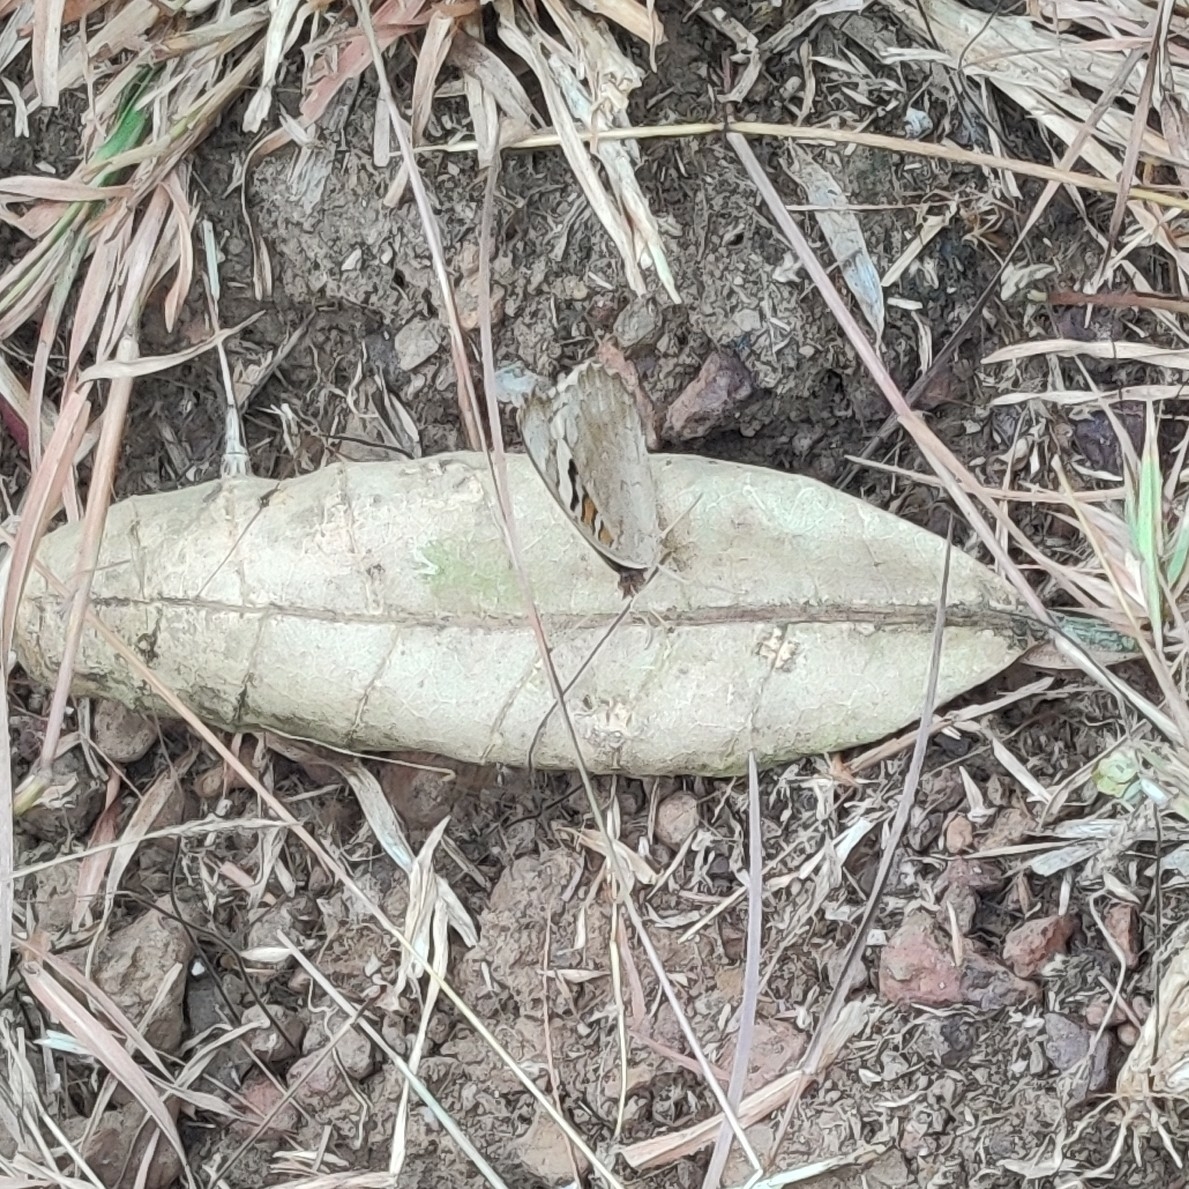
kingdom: Animalia
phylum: Arthropoda
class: Insecta
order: Lepidoptera
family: Nymphalidae
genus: Junonia
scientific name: Junonia orithya
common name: Blue pansy
